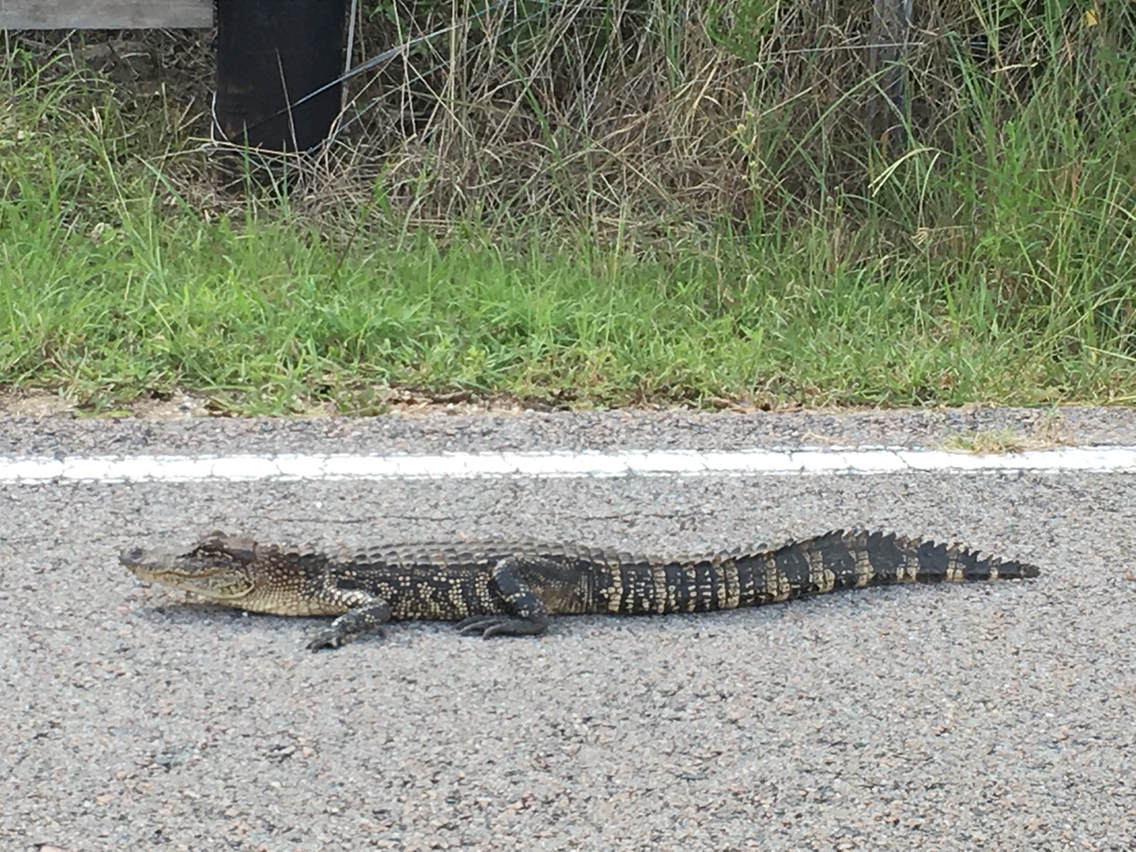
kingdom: Animalia
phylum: Chordata
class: Crocodylia
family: Alligatoridae
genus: Alligator
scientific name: Alligator mississippiensis
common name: American alligator
